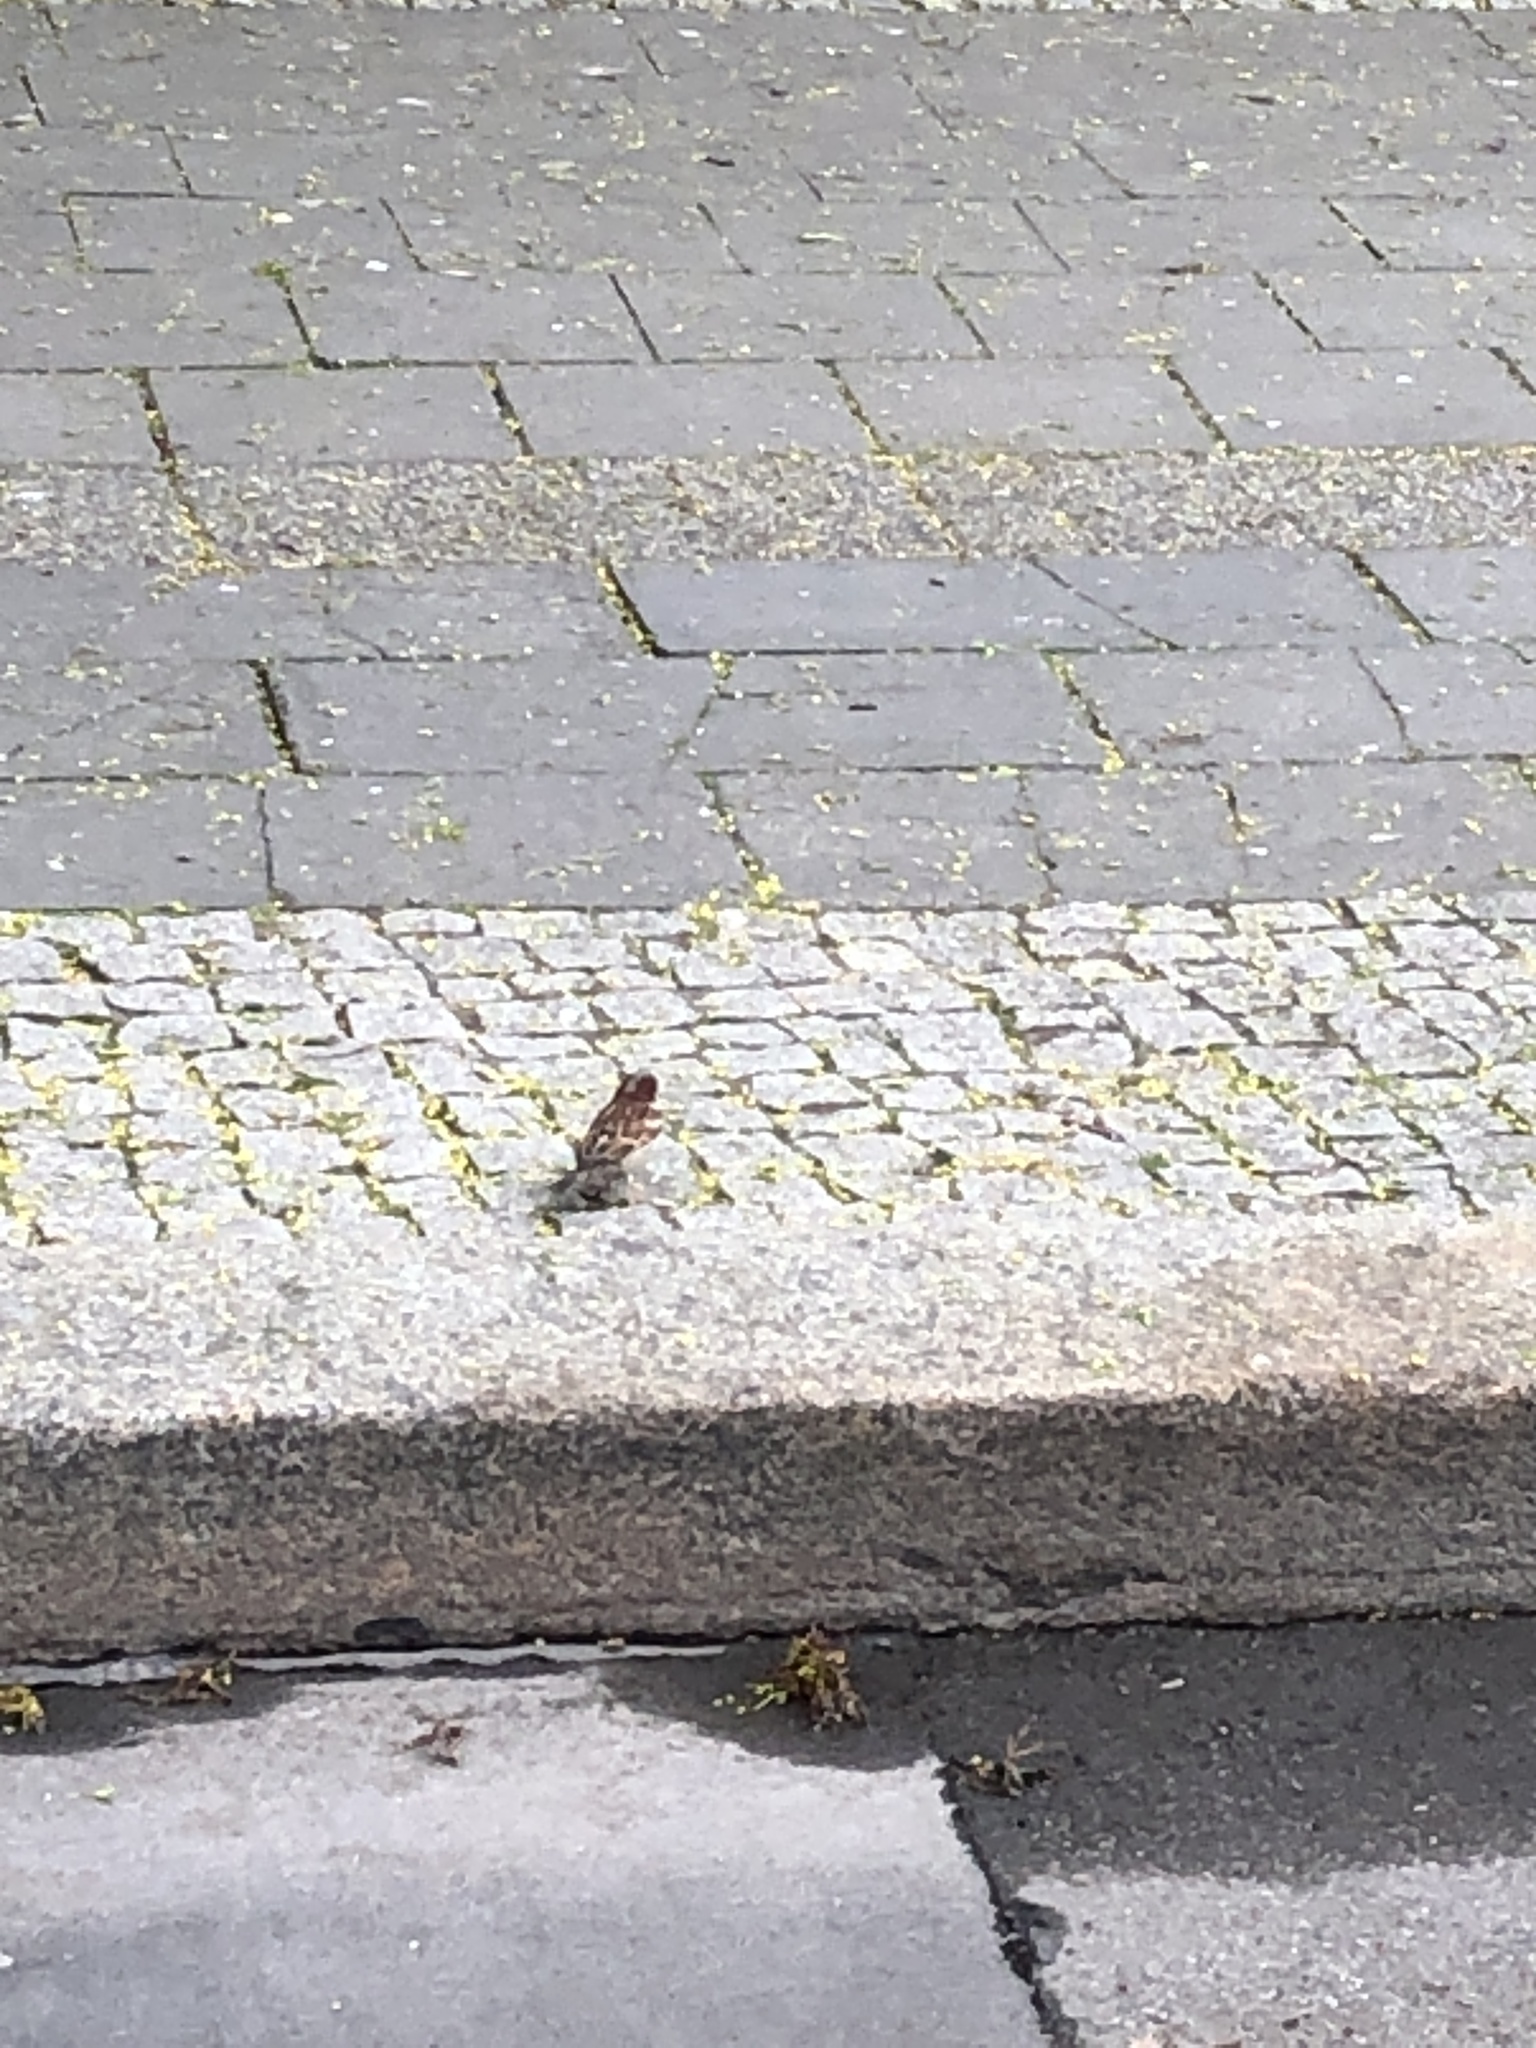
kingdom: Animalia
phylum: Chordata
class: Aves
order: Passeriformes
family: Passeridae
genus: Passer
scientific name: Passer domesticus
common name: House sparrow
